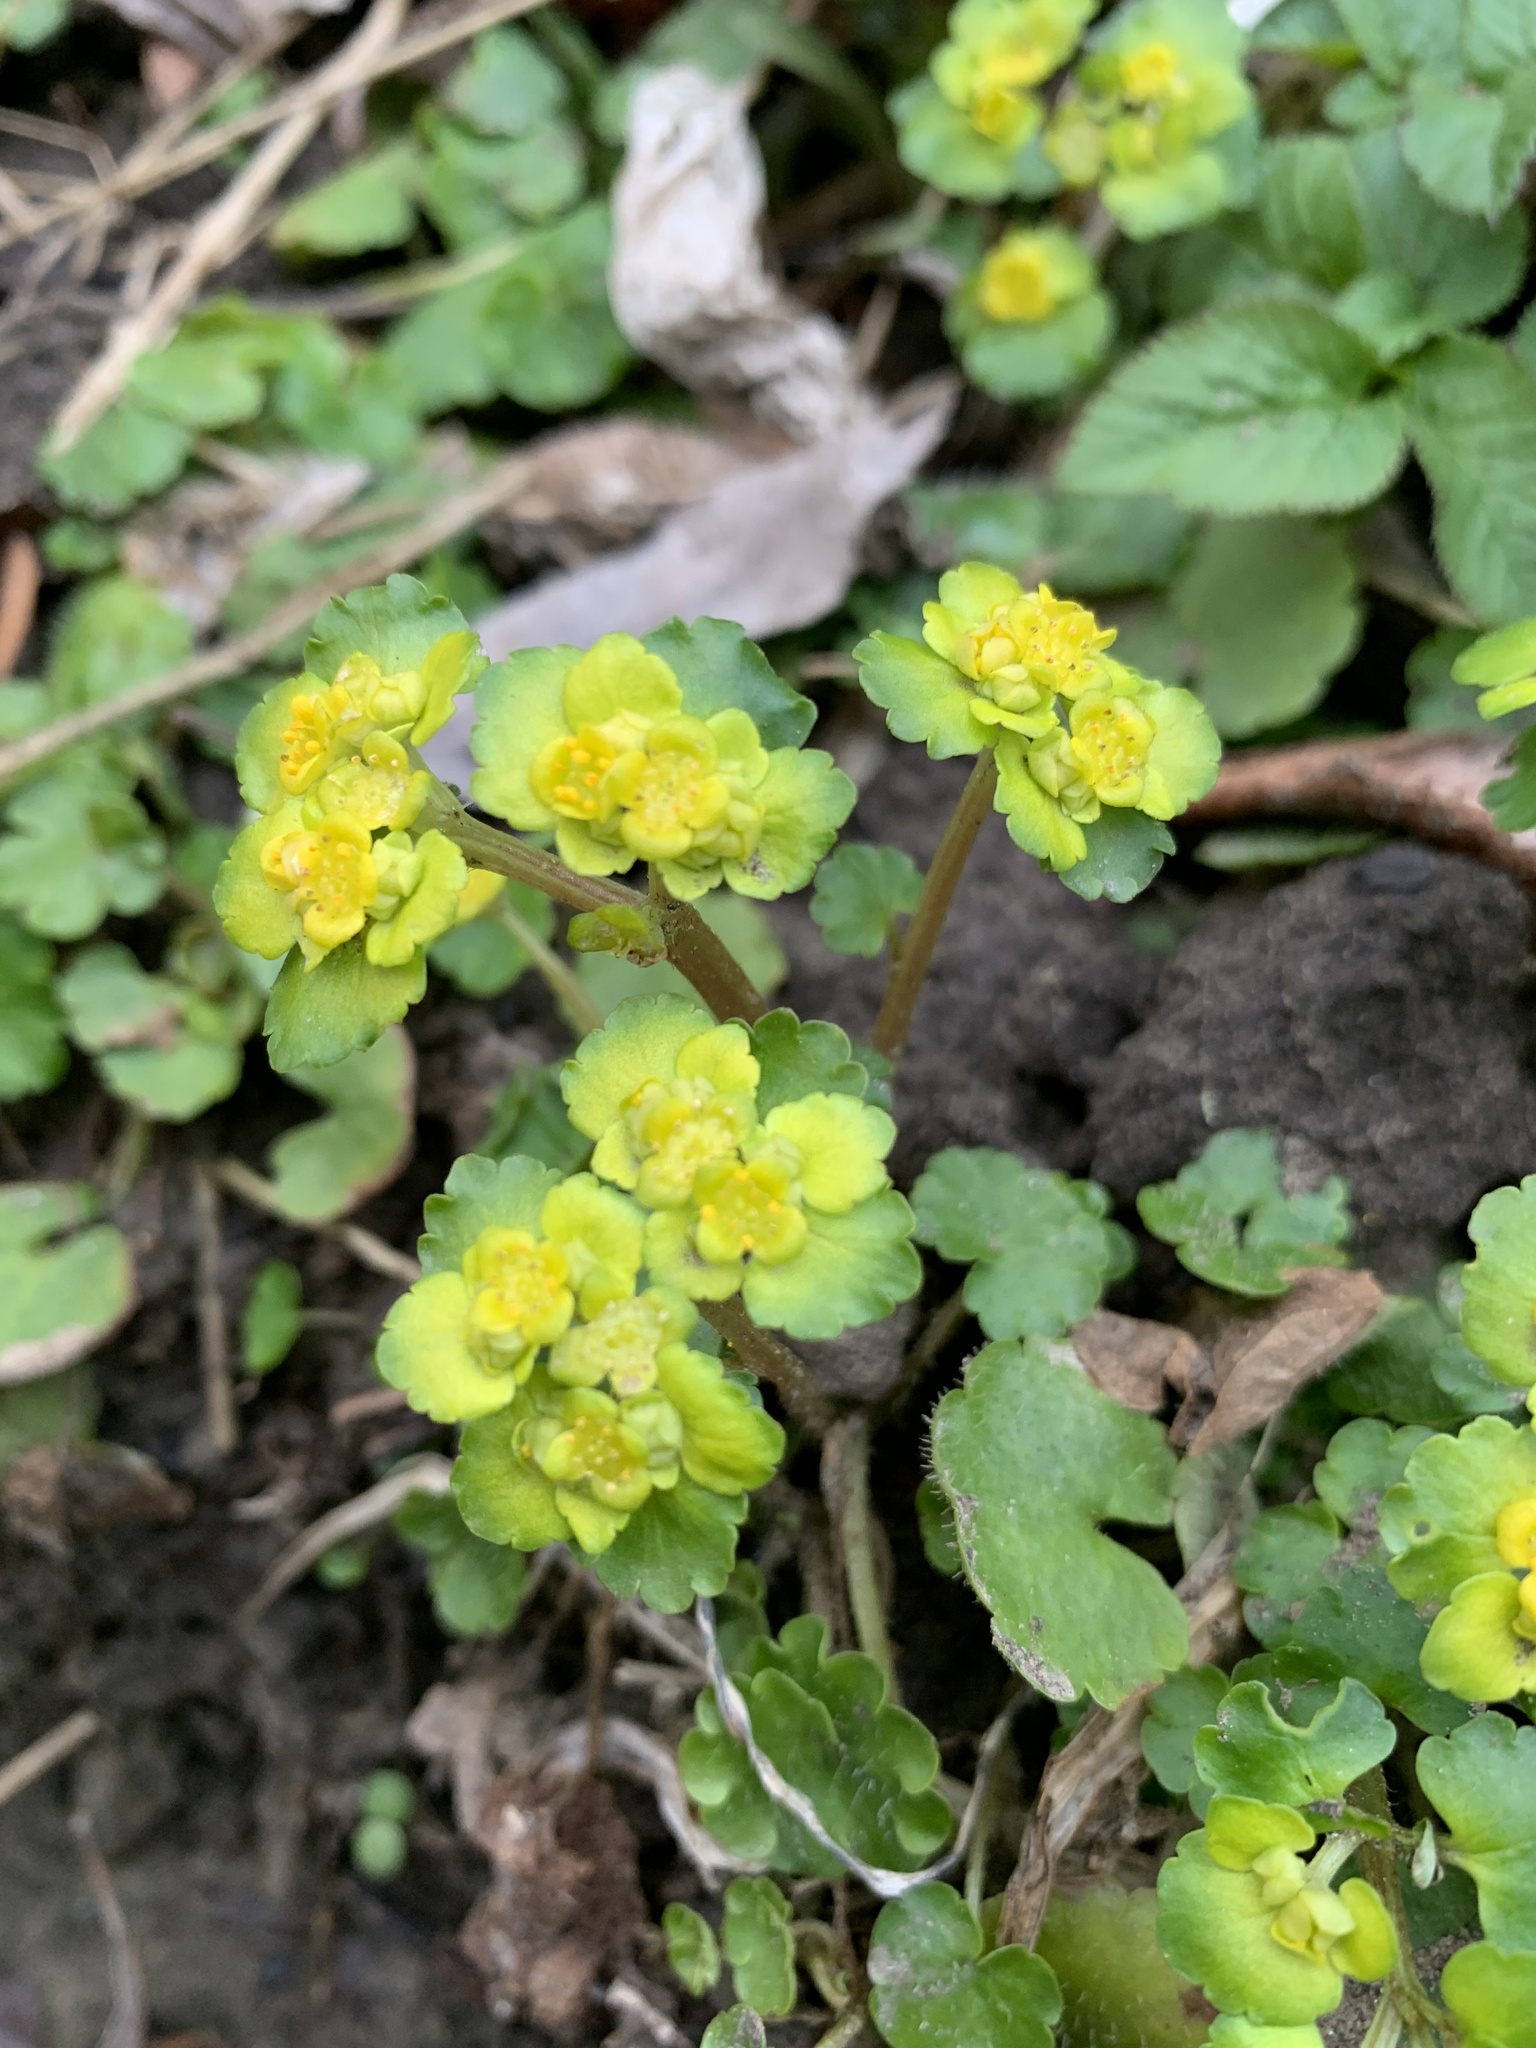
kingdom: Plantae
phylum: Tracheophyta
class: Magnoliopsida
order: Saxifragales
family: Saxifragaceae
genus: Chrysosplenium
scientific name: Chrysosplenium alternifolium
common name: Alternate-leaved golden-saxifrage
